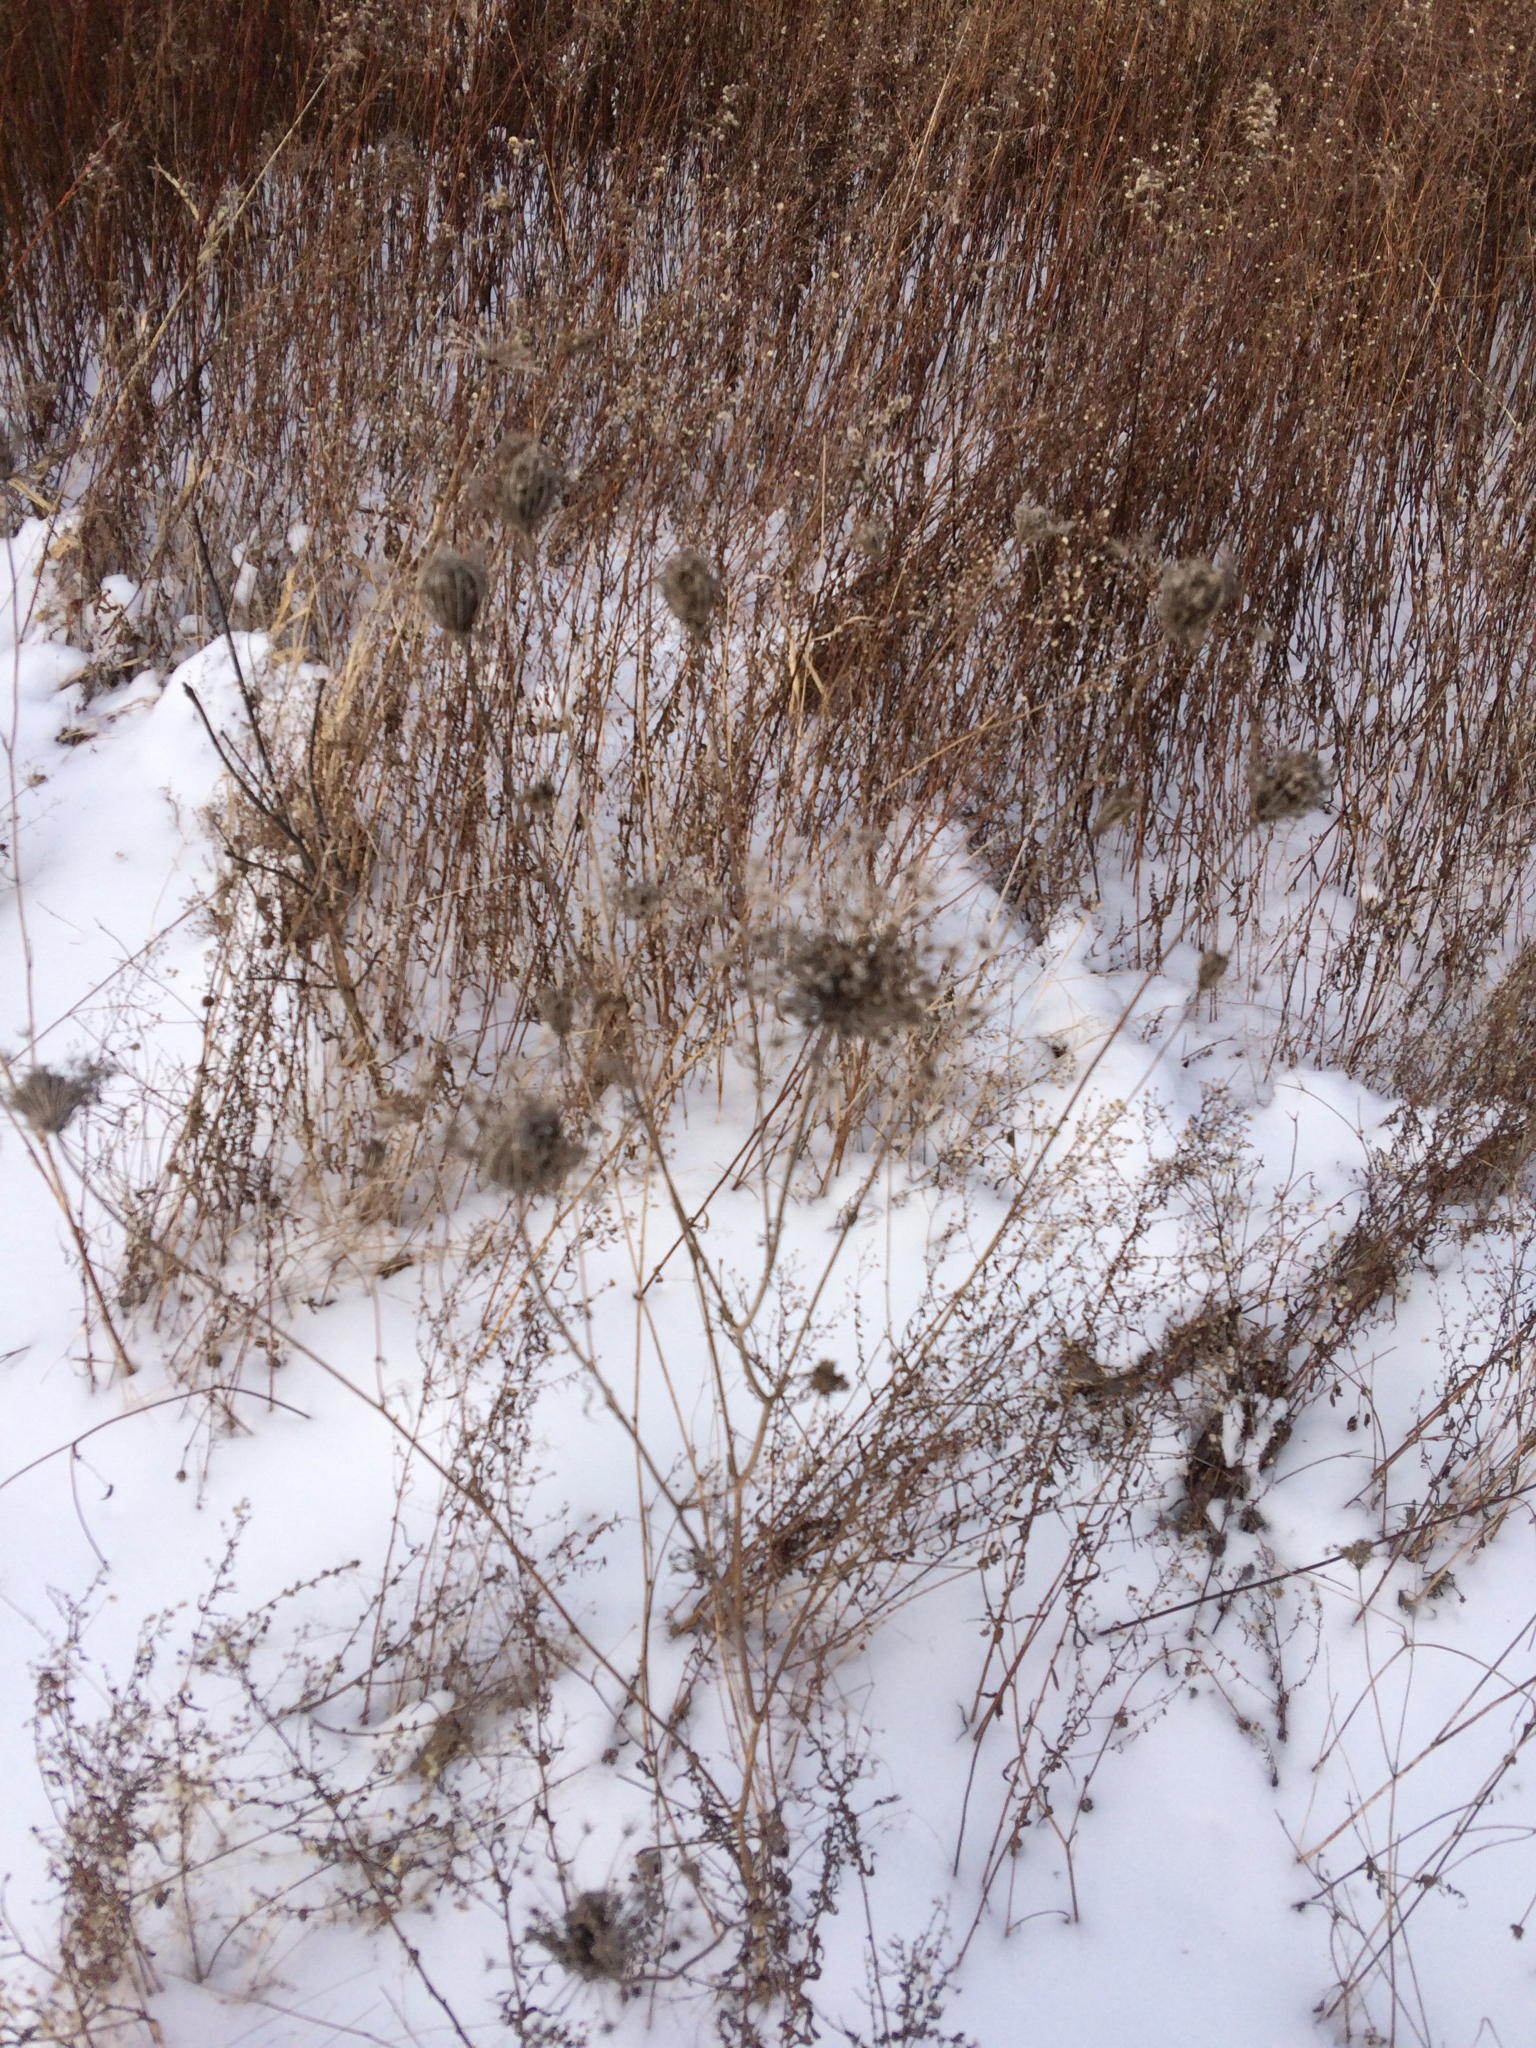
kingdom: Plantae
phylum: Tracheophyta
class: Magnoliopsida
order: Apiales
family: Apiaceae
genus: Daucus
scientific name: Daucus carota
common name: Wild carrot
